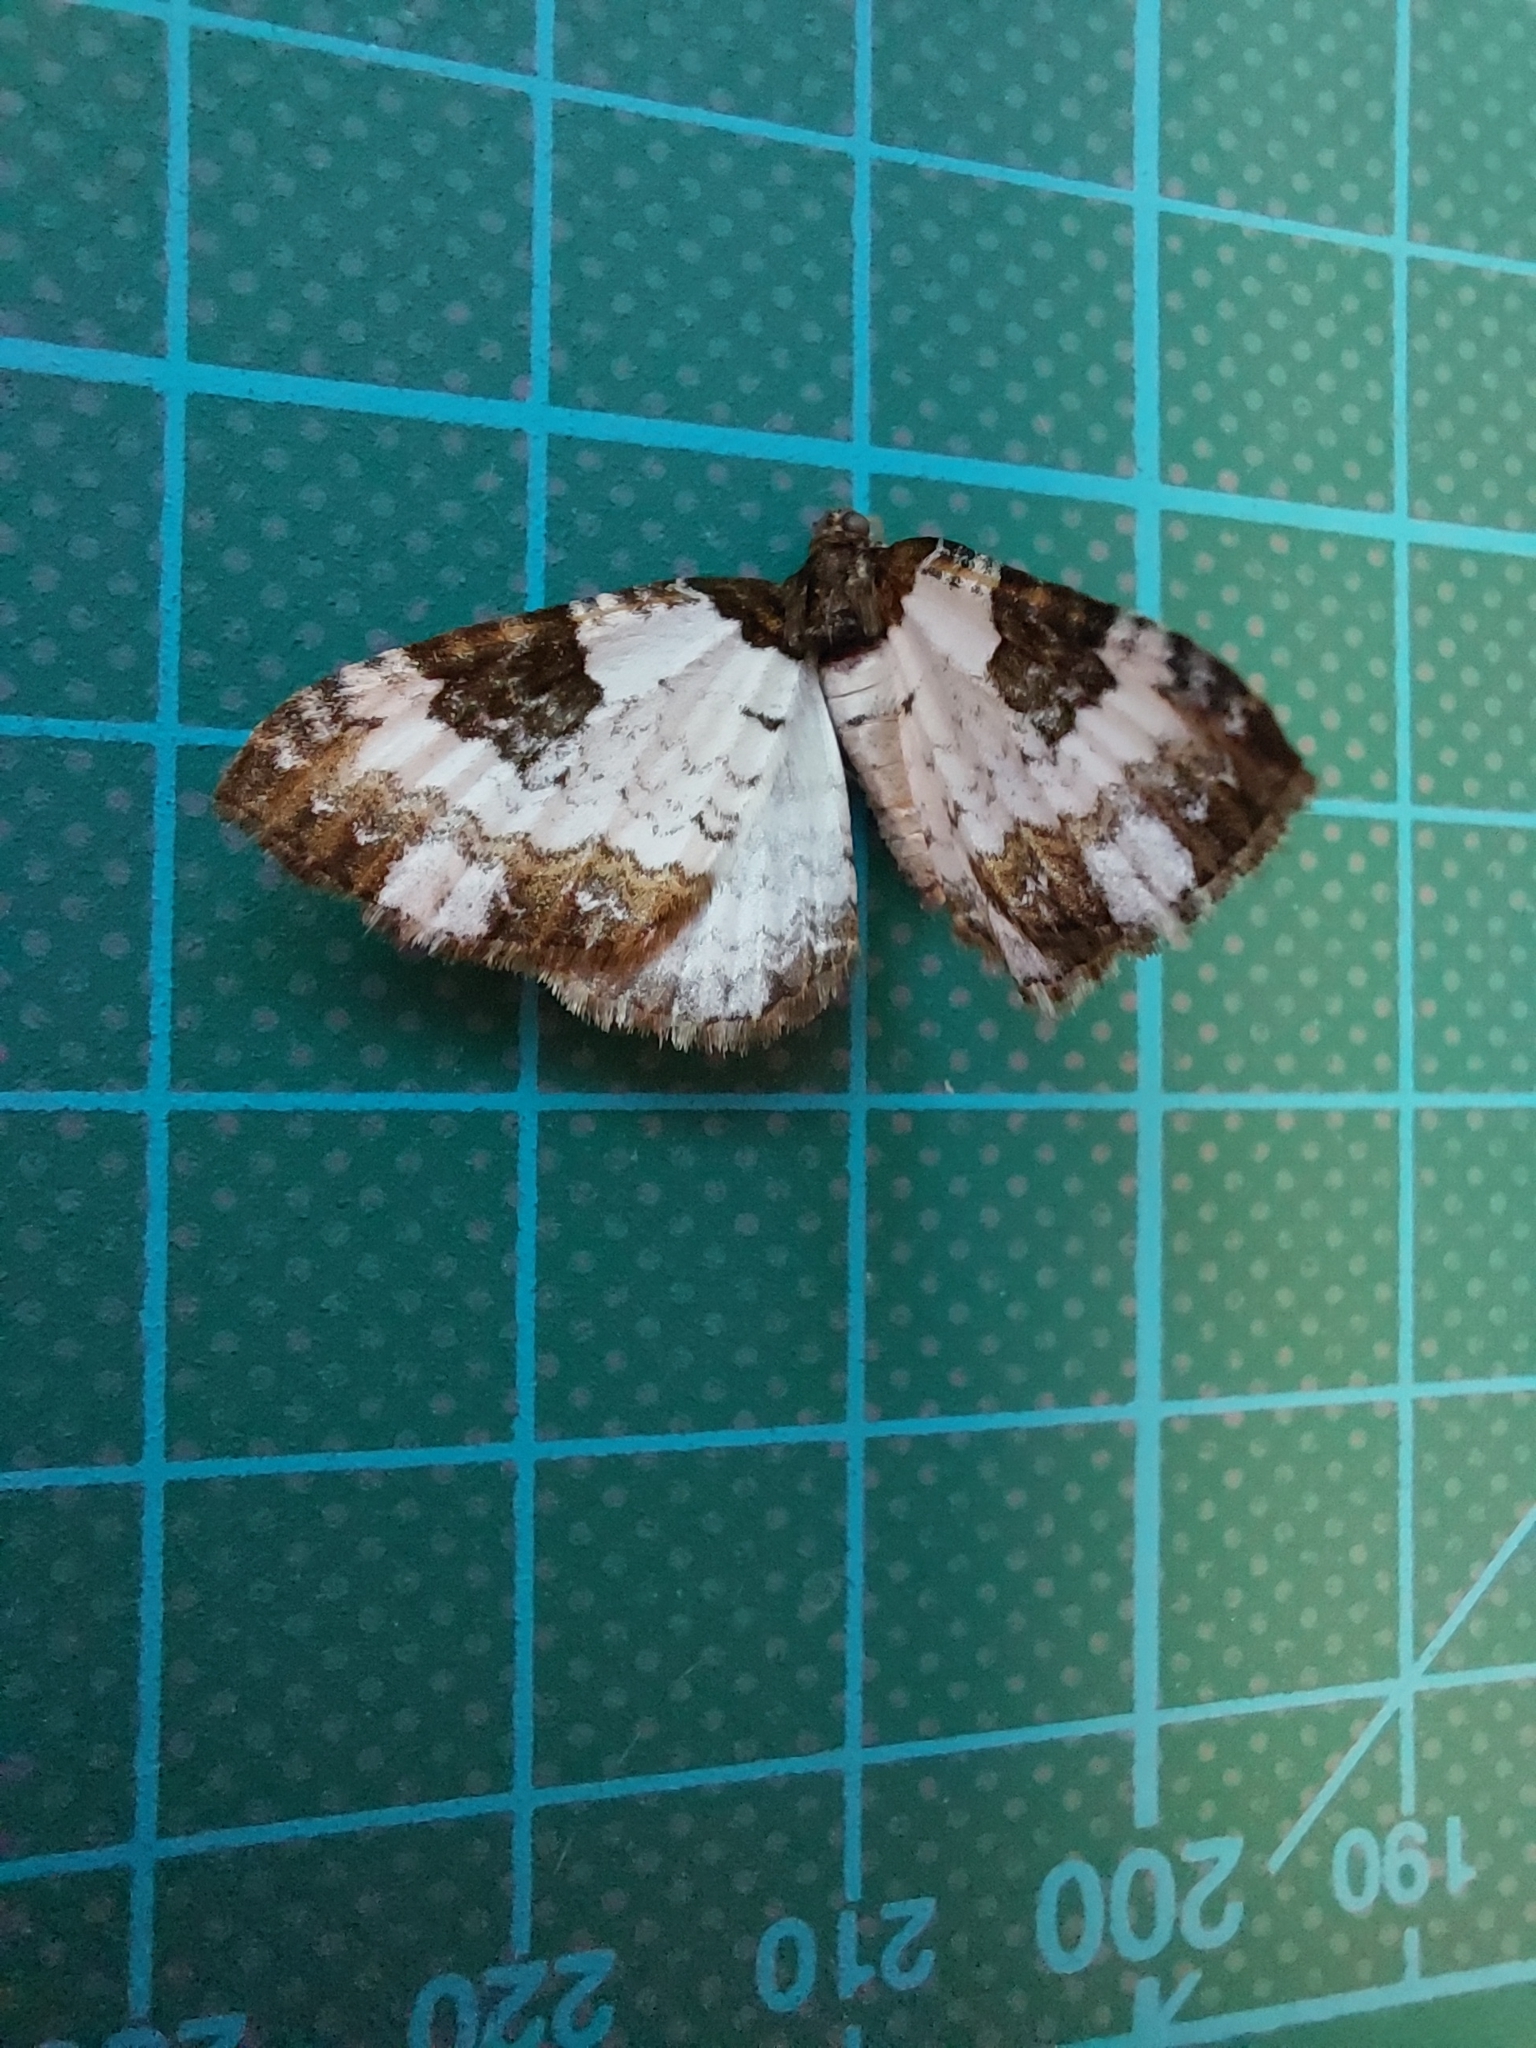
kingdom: Animalia
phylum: Arthropoda
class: Insecta
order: Lepidoptera
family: Geometridae
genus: Melanthia
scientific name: Melanthia procellata
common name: Pretty chalk carpet
